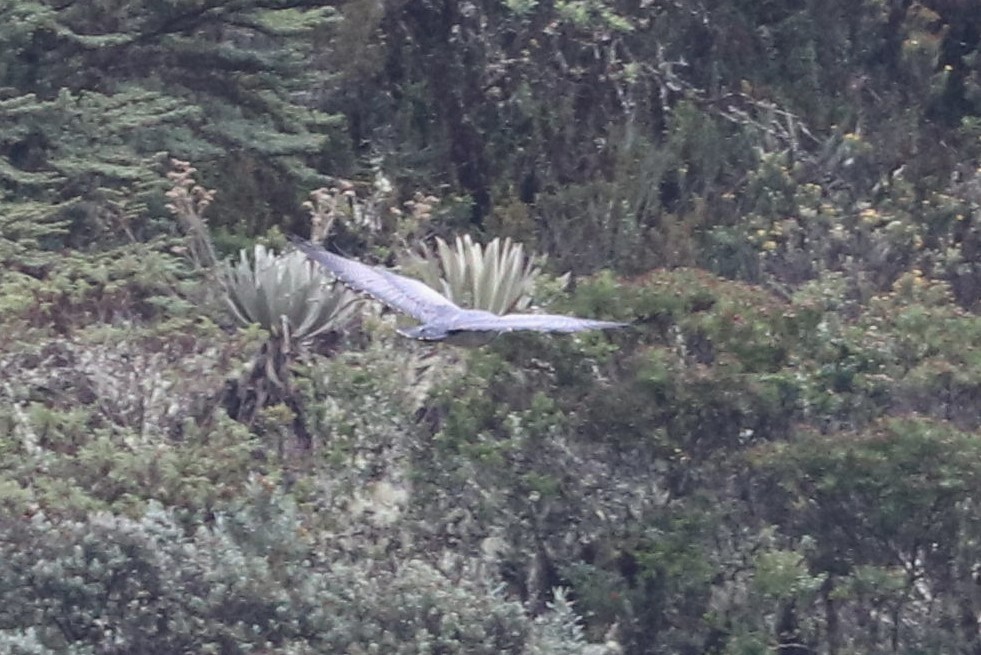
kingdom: Animalia
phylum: Chordata
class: Aves
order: Accipitriformes
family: Accipitridae
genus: Geranoaetus
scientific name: Geranoaetus melanoleucus
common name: Black-chested buzzard-eagle
